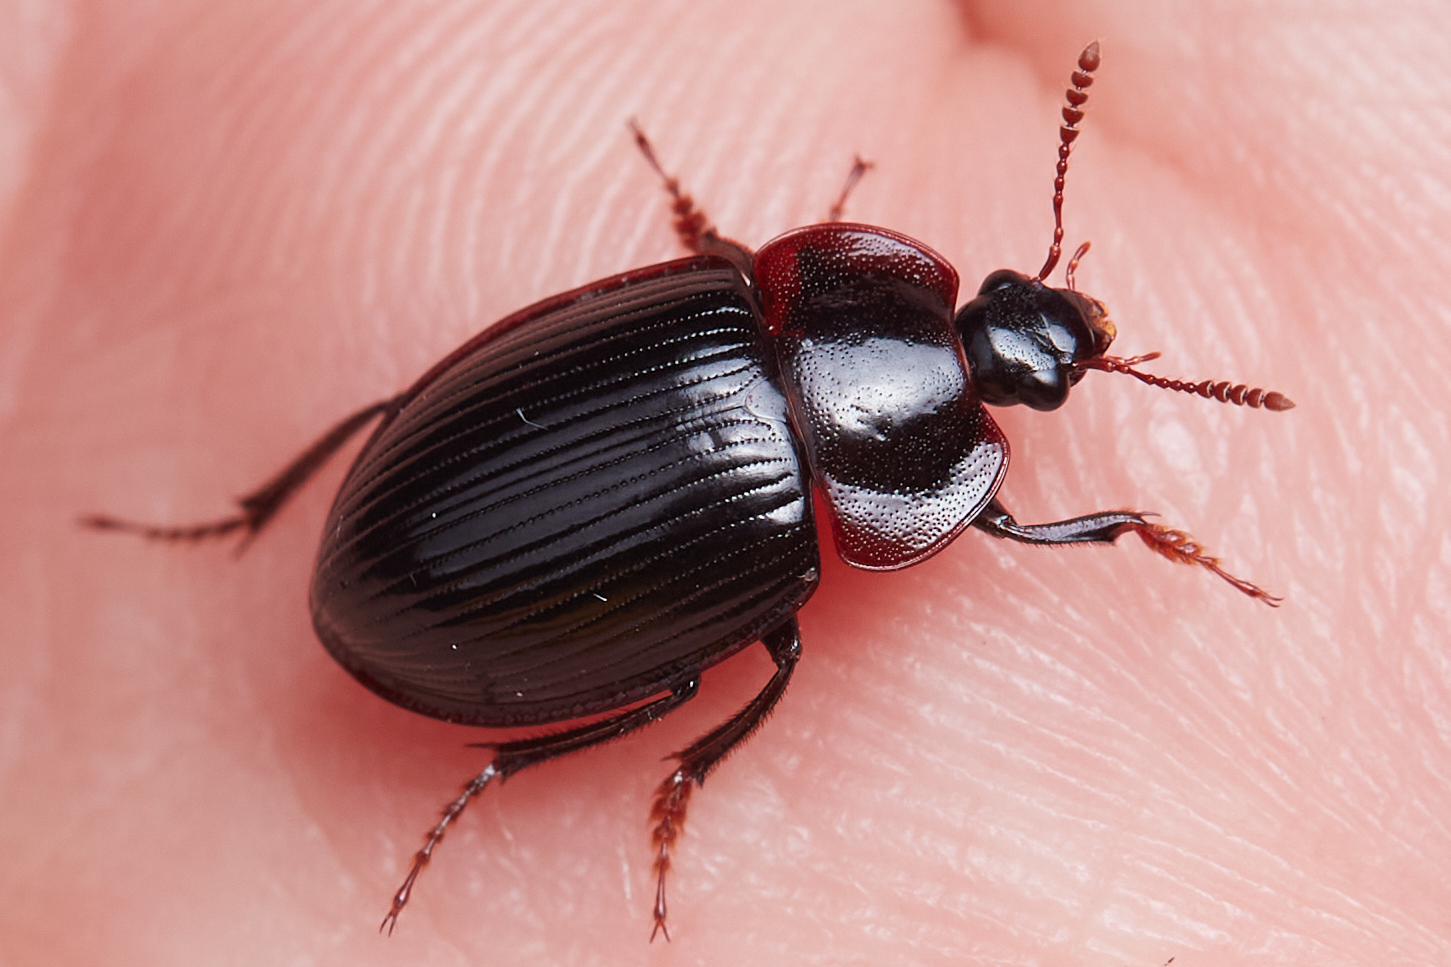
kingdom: Animalia
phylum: Arthropoda
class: Insecta
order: Coleoptera
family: Agyrtidae
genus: Necrophilus
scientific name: Necrophilus hydrophiloides
